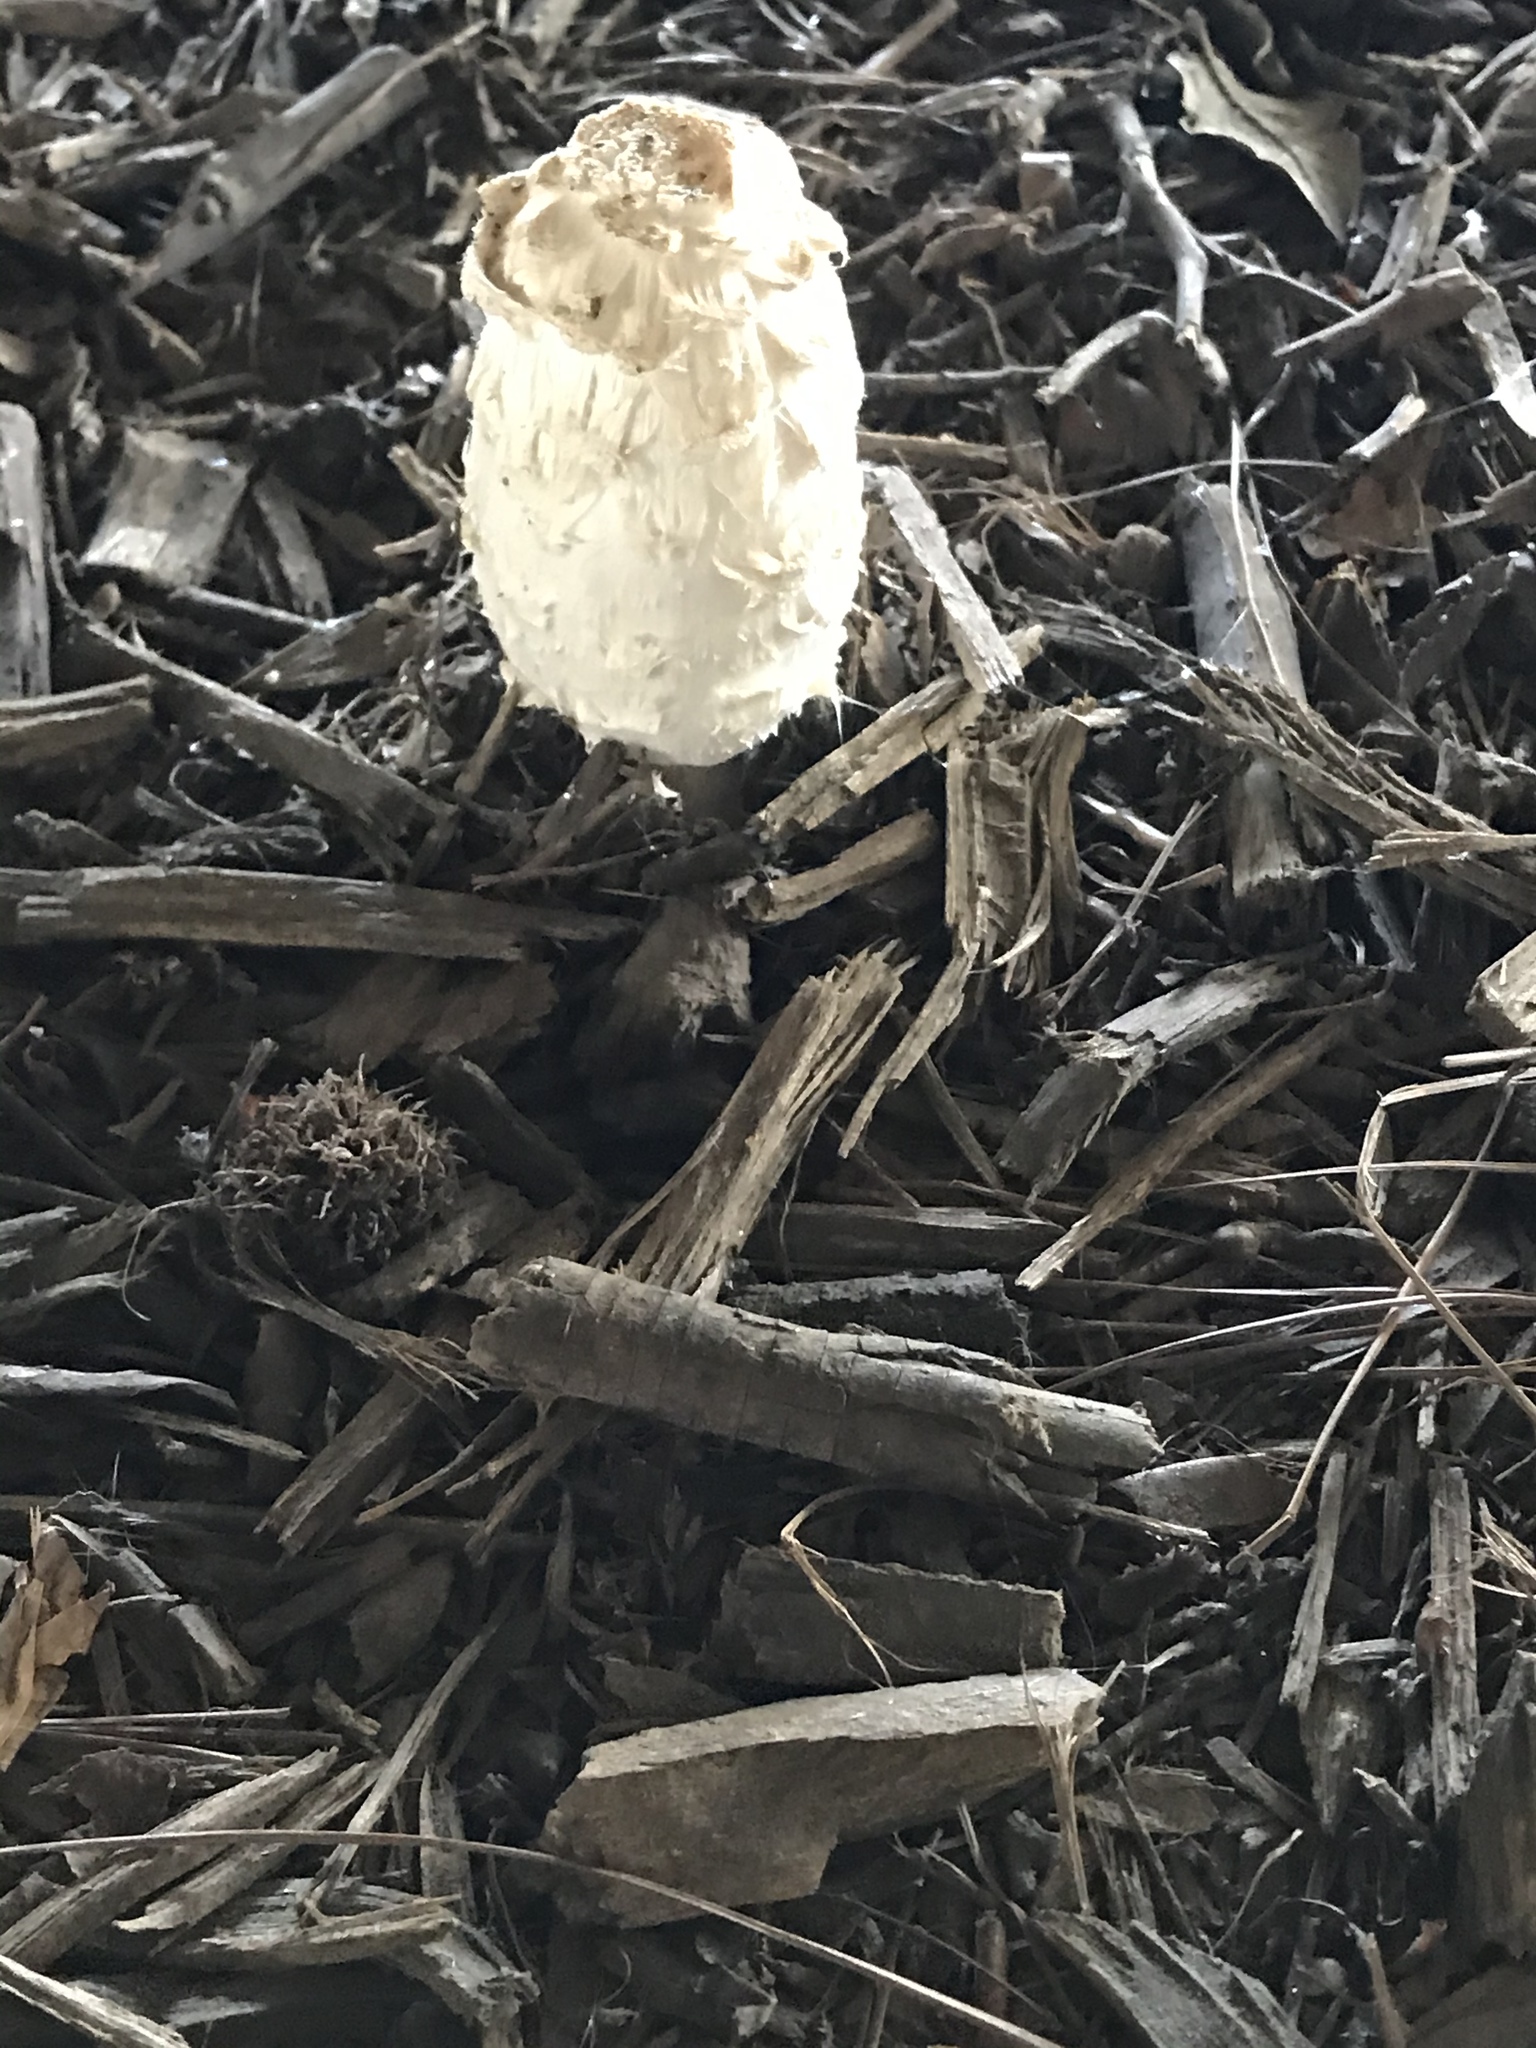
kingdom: Fungi
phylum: Basidiomycota
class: Agaricomycetes
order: Agaricales
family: Agaricaceae
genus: Coprinus
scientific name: Coprinus comatus
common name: Lawyer's wig
